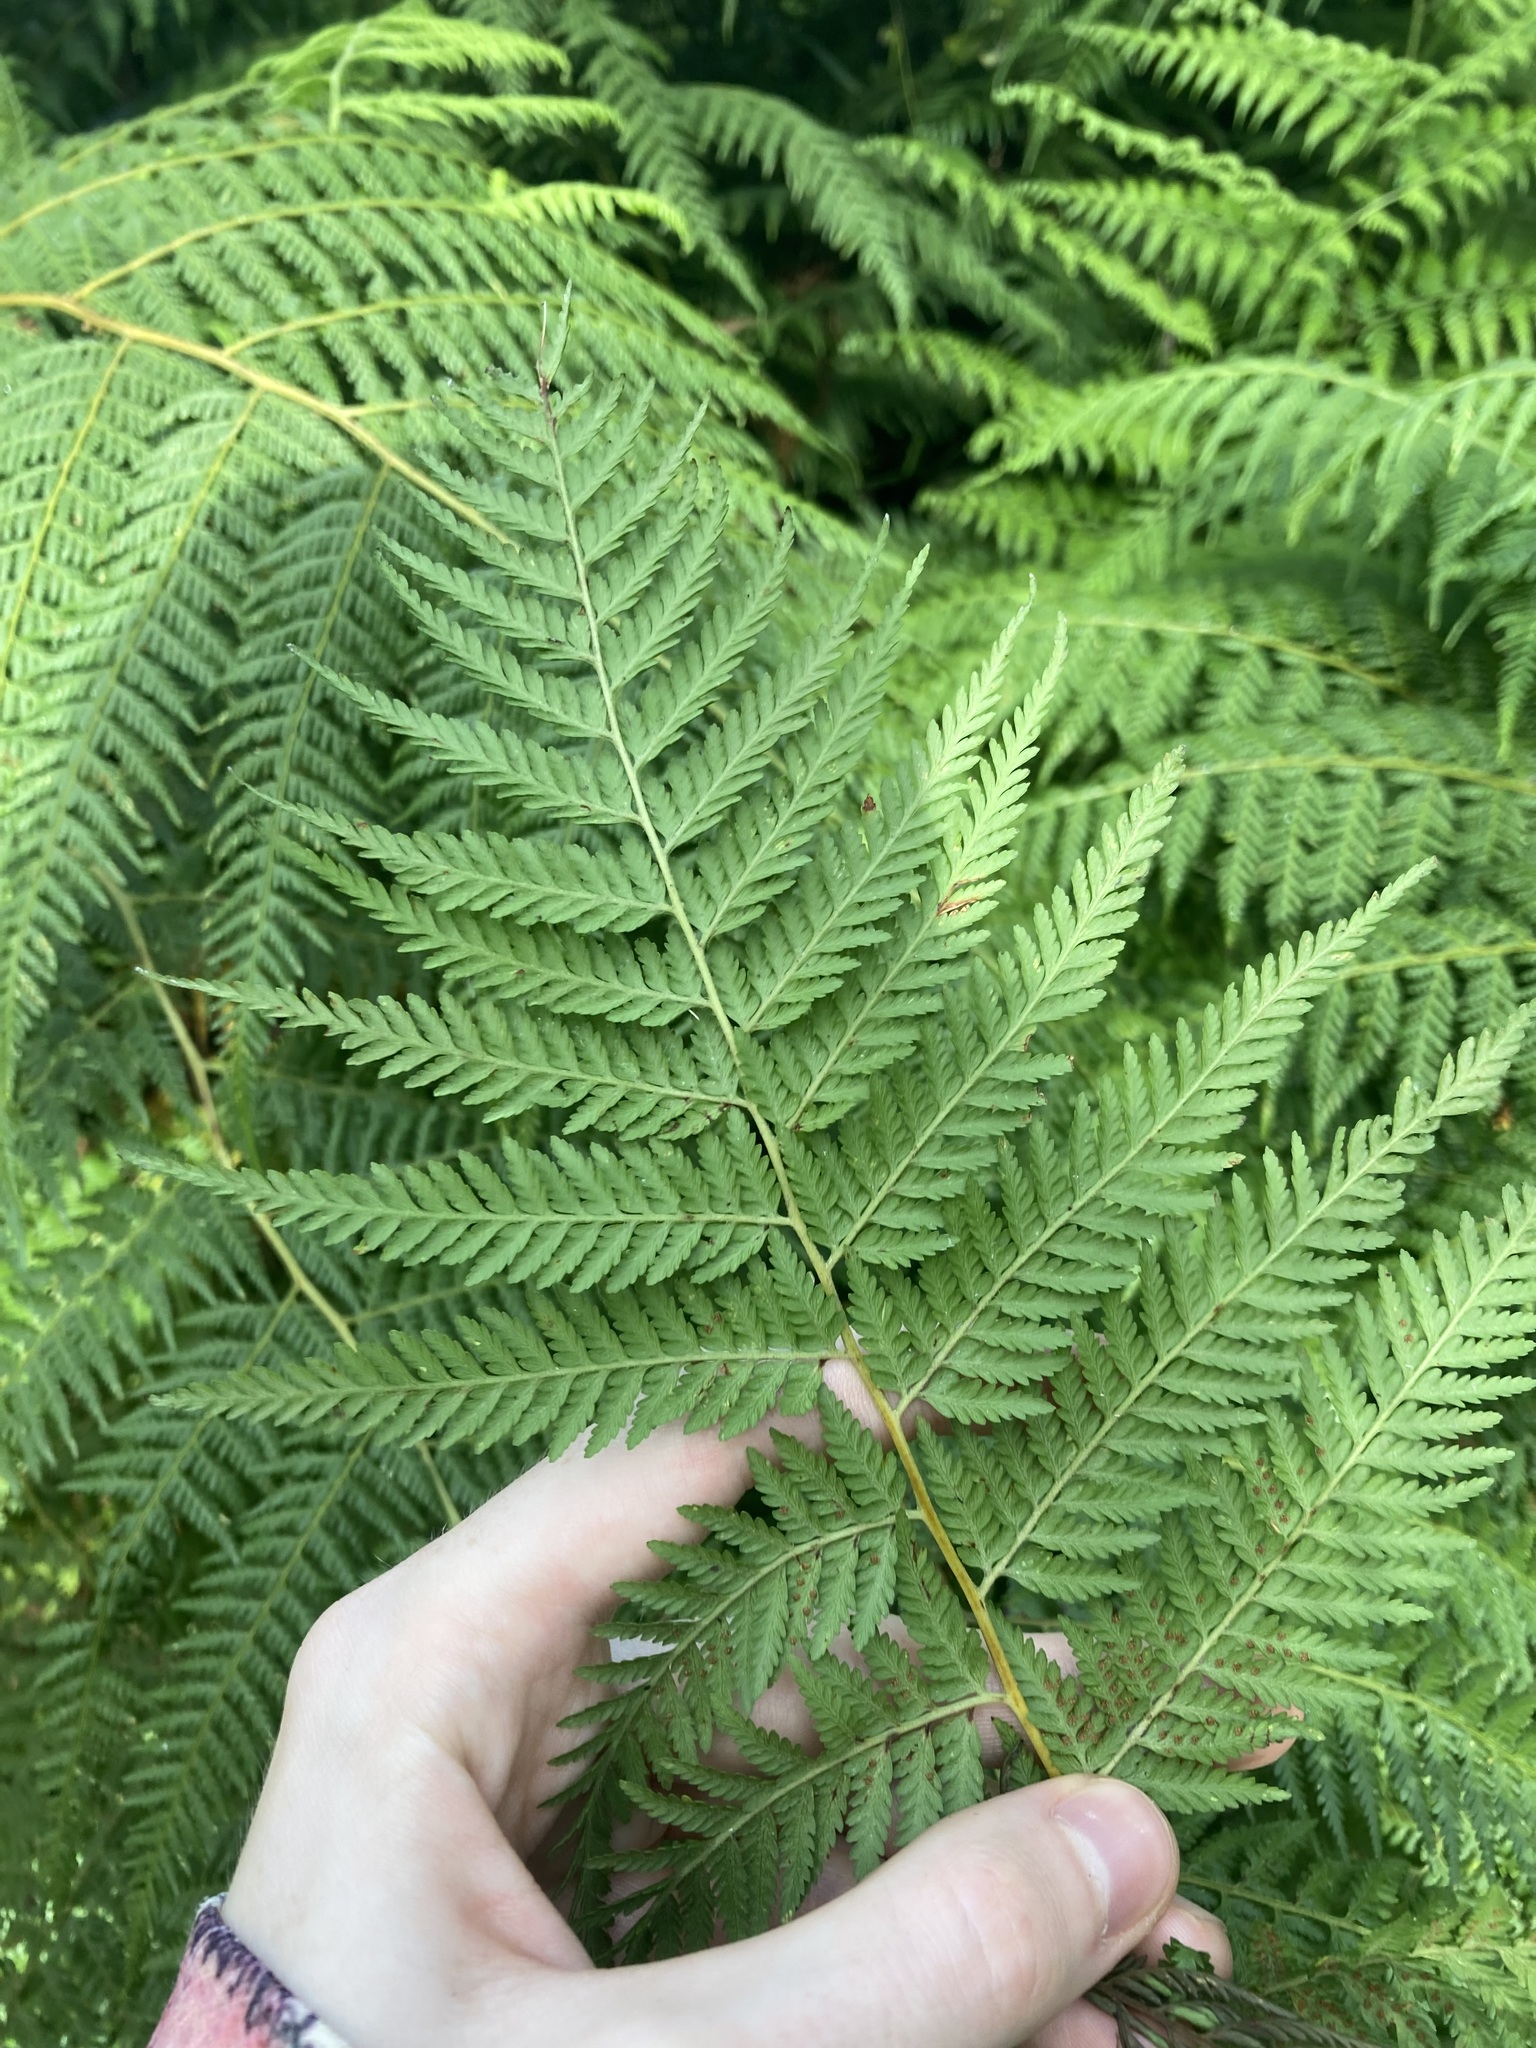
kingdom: Plantae
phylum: Tracheophyta
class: Polypodiopsida
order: Cyatheales
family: Dicksoniaceae
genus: Calochlaena
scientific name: Calochlaena dubia
